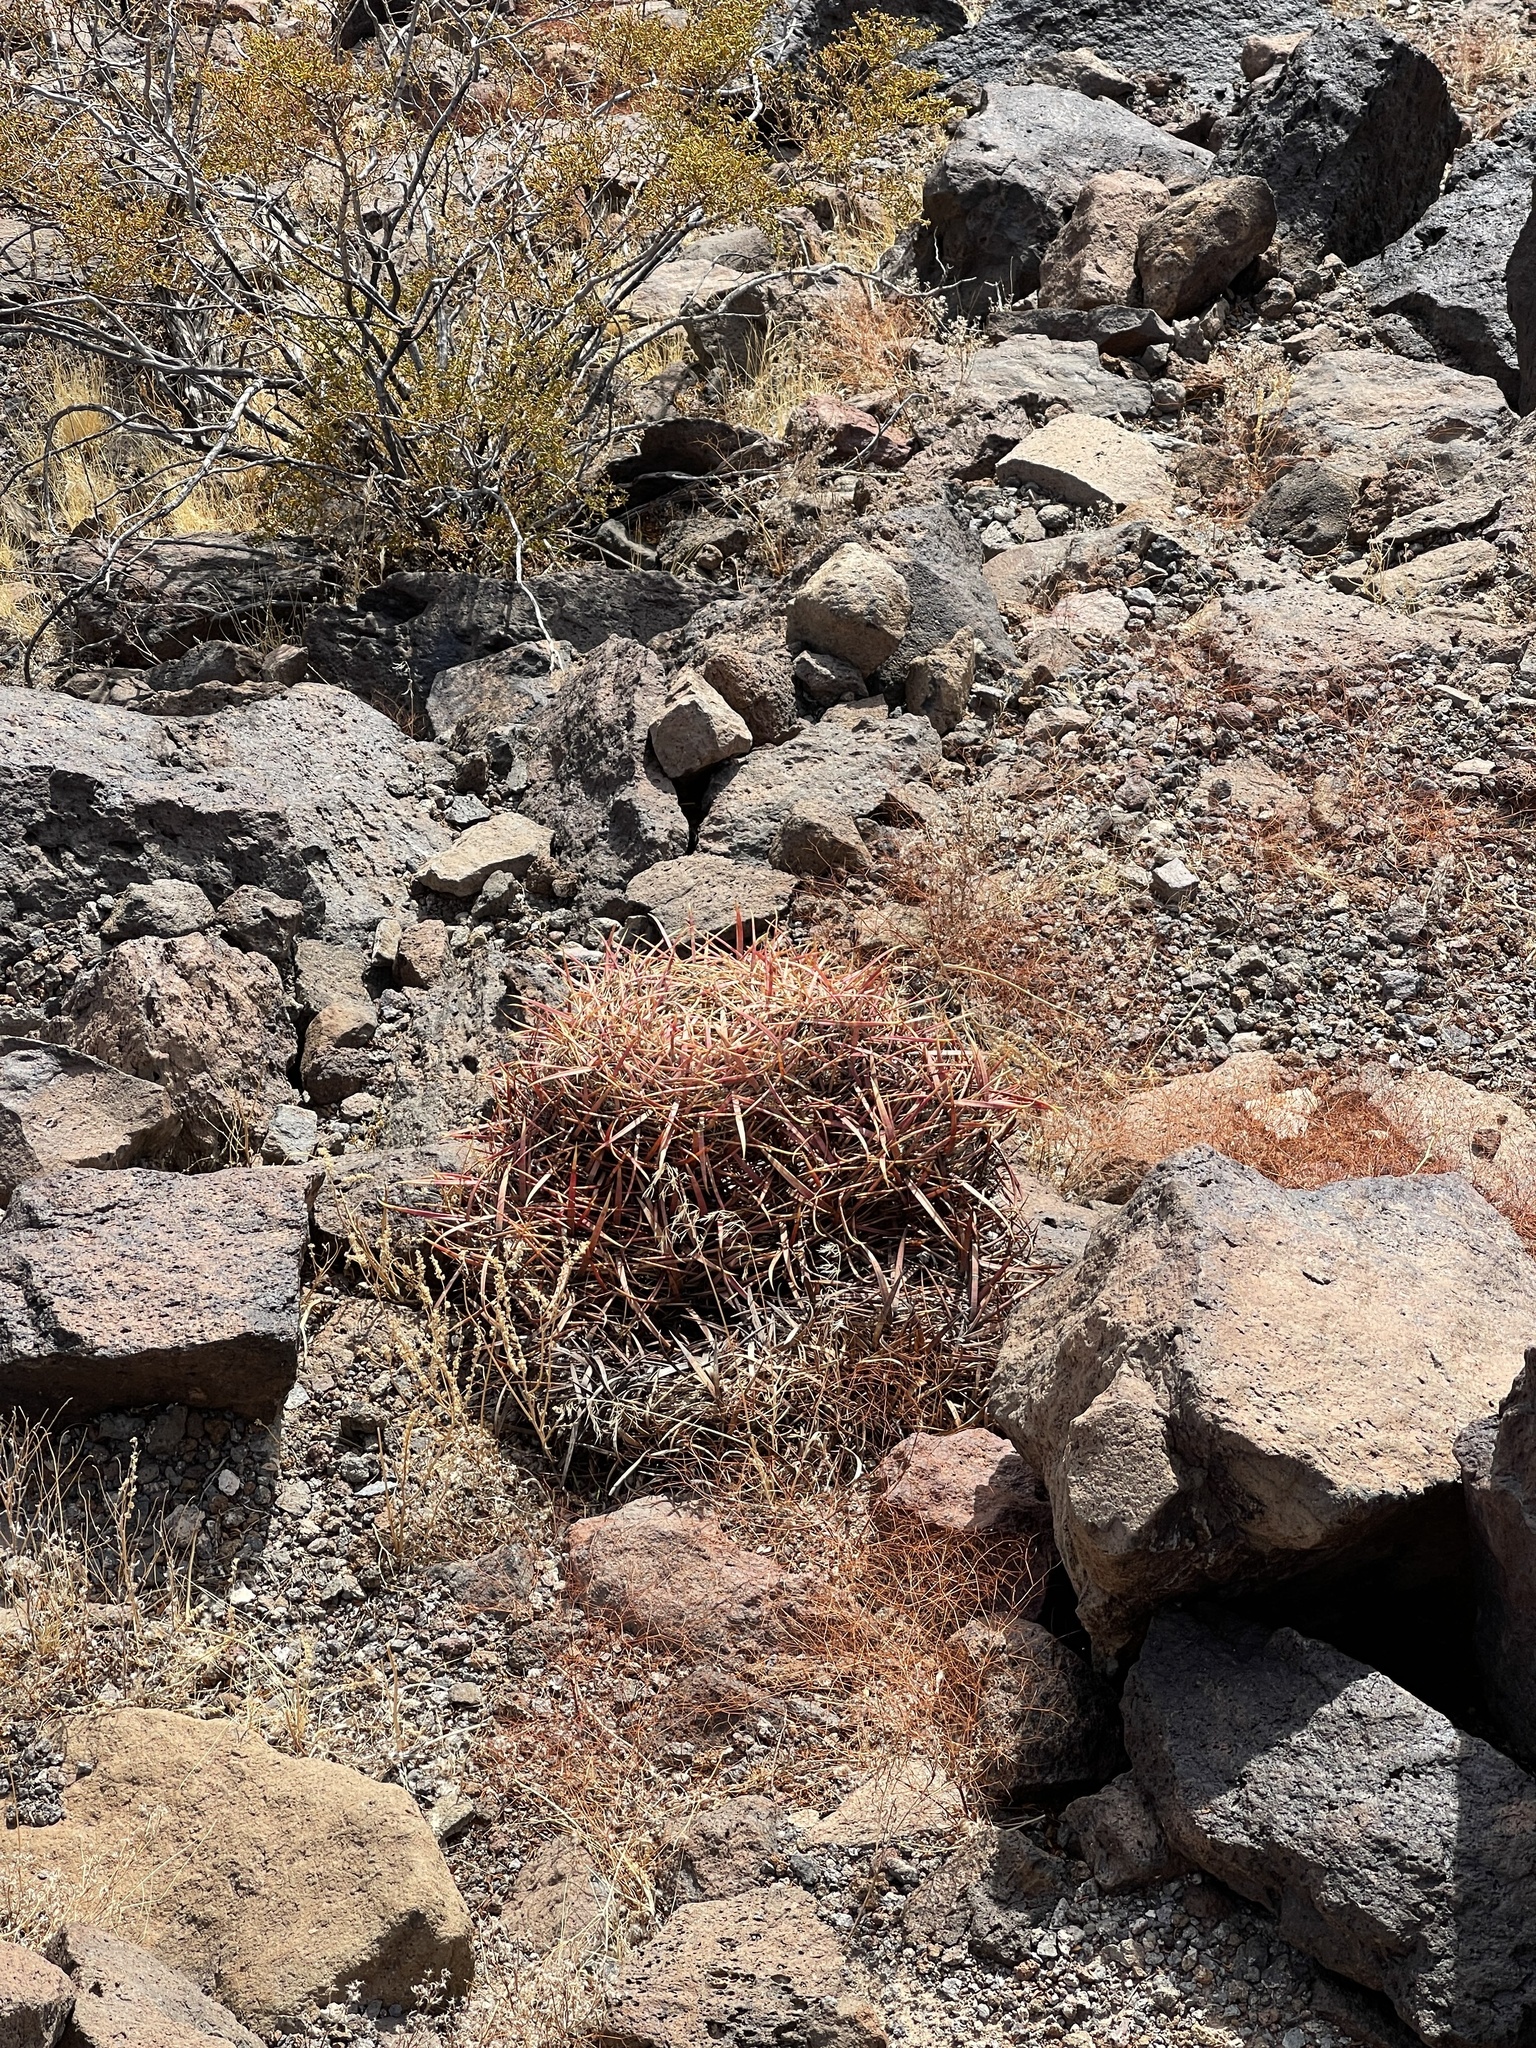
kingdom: Plantae
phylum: Tracheophyta
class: Magnoliopsida
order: Caryophyllales
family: Cactaceae
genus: Ferocactus
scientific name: Ferocactus cylindraceus
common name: California barrel cactus
